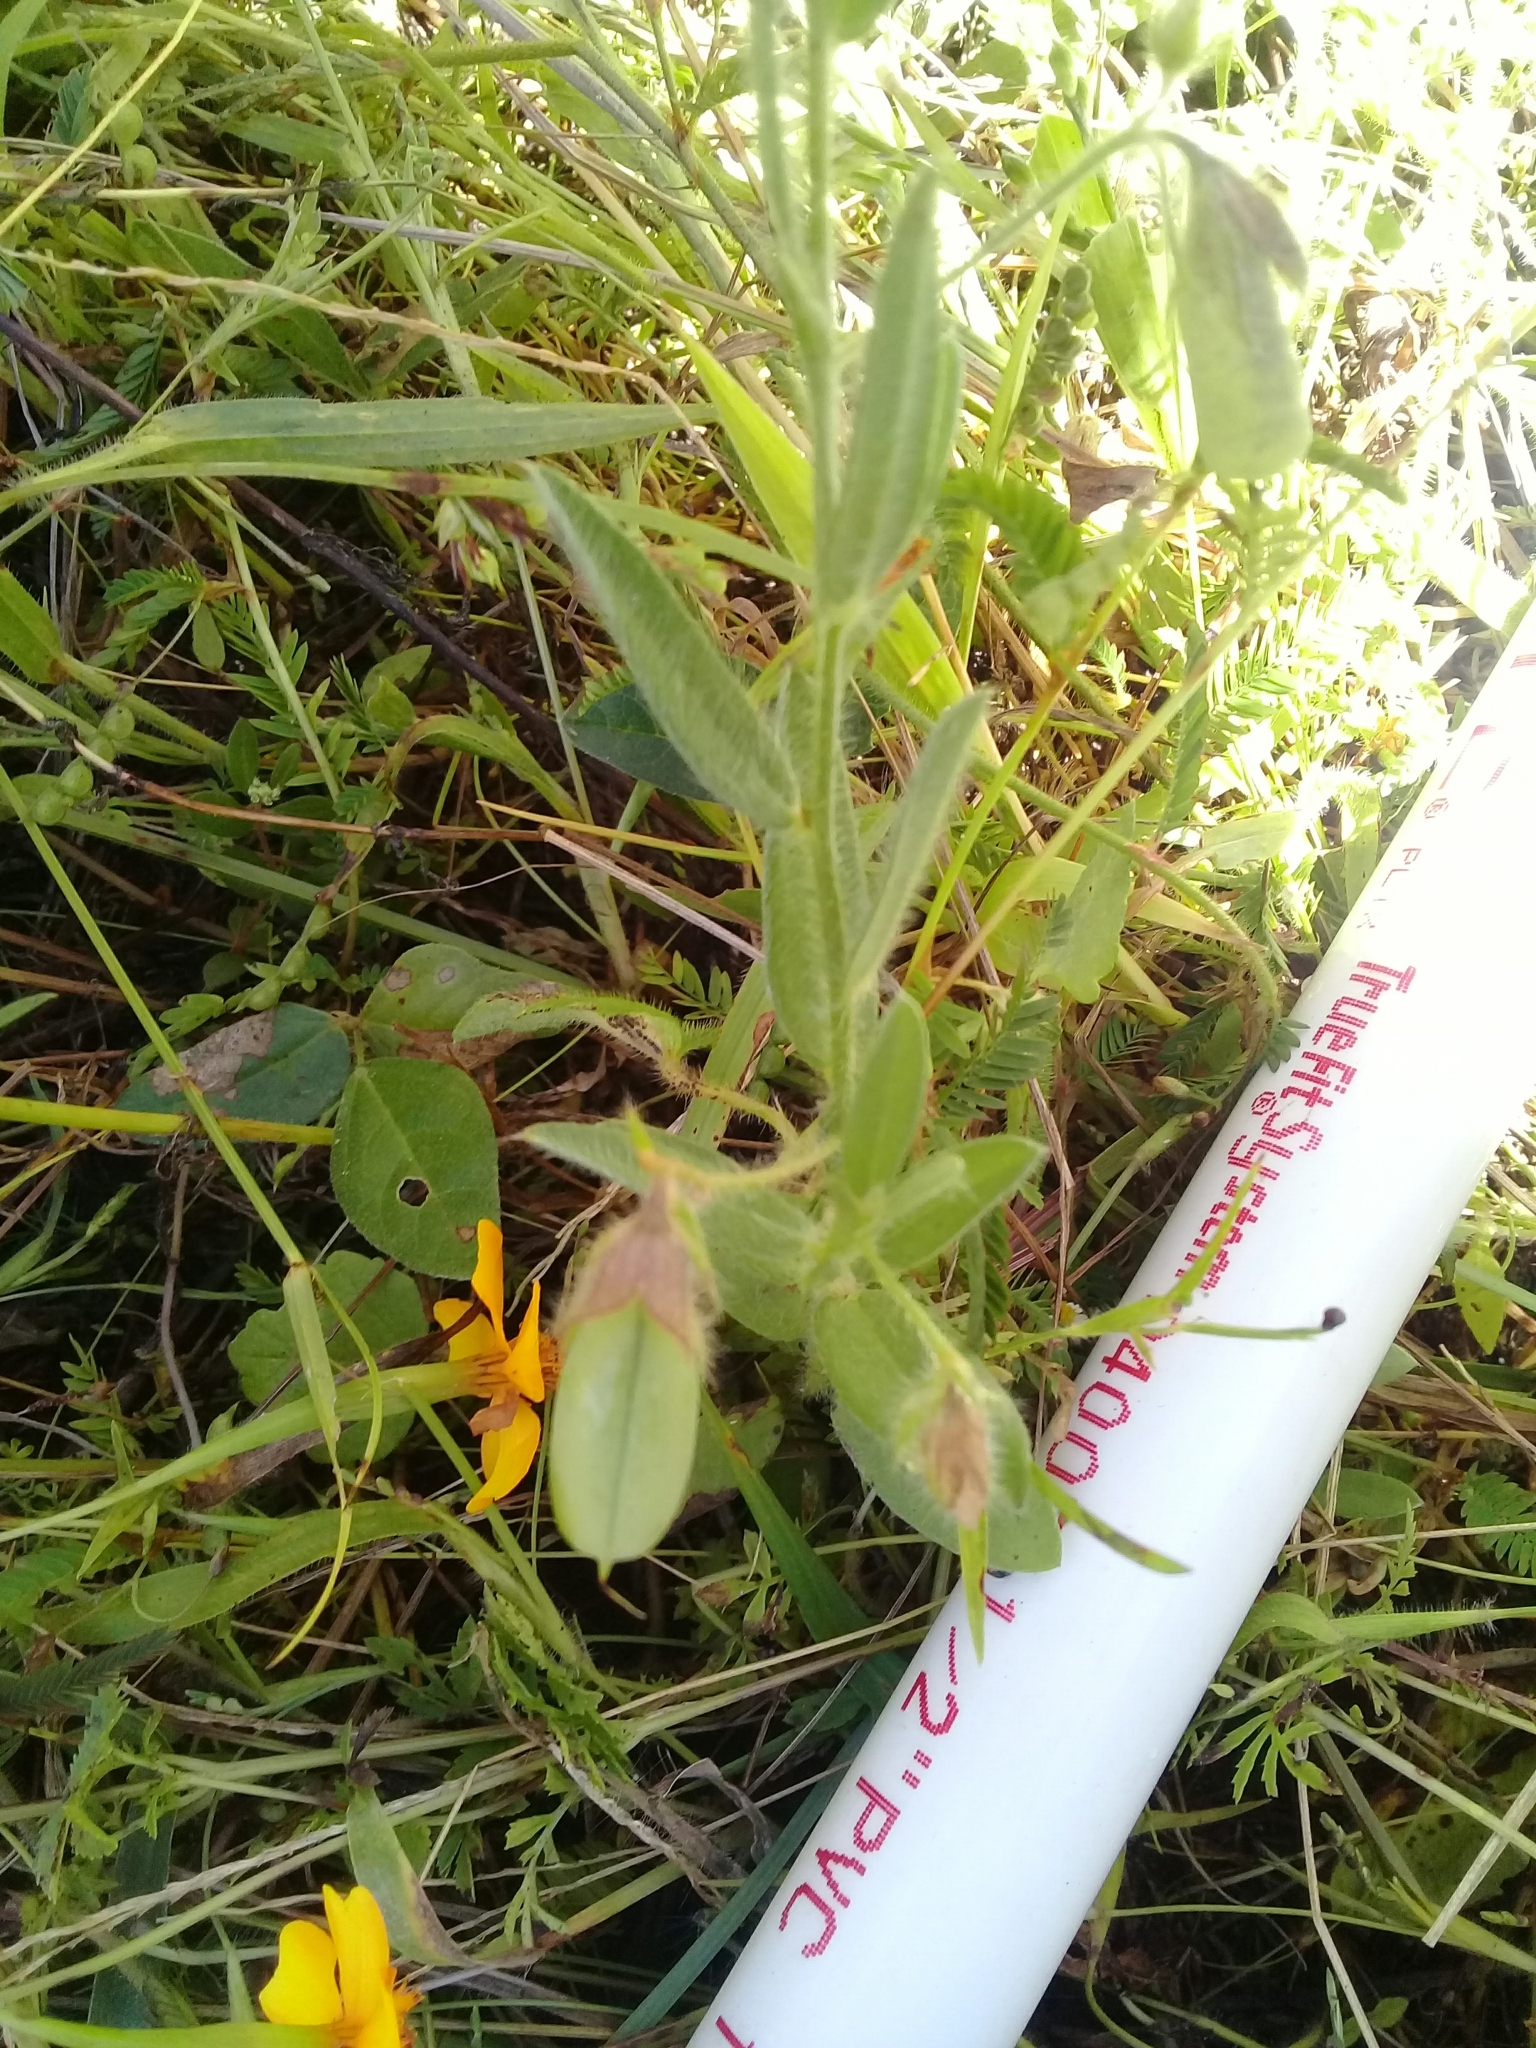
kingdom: Plantae
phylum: Tracheophyta
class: Magnoliopsida
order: Fabales
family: Fabaceae
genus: Crotalaria
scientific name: Crotalaria sagittalis
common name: Arrowhead rattlebox
